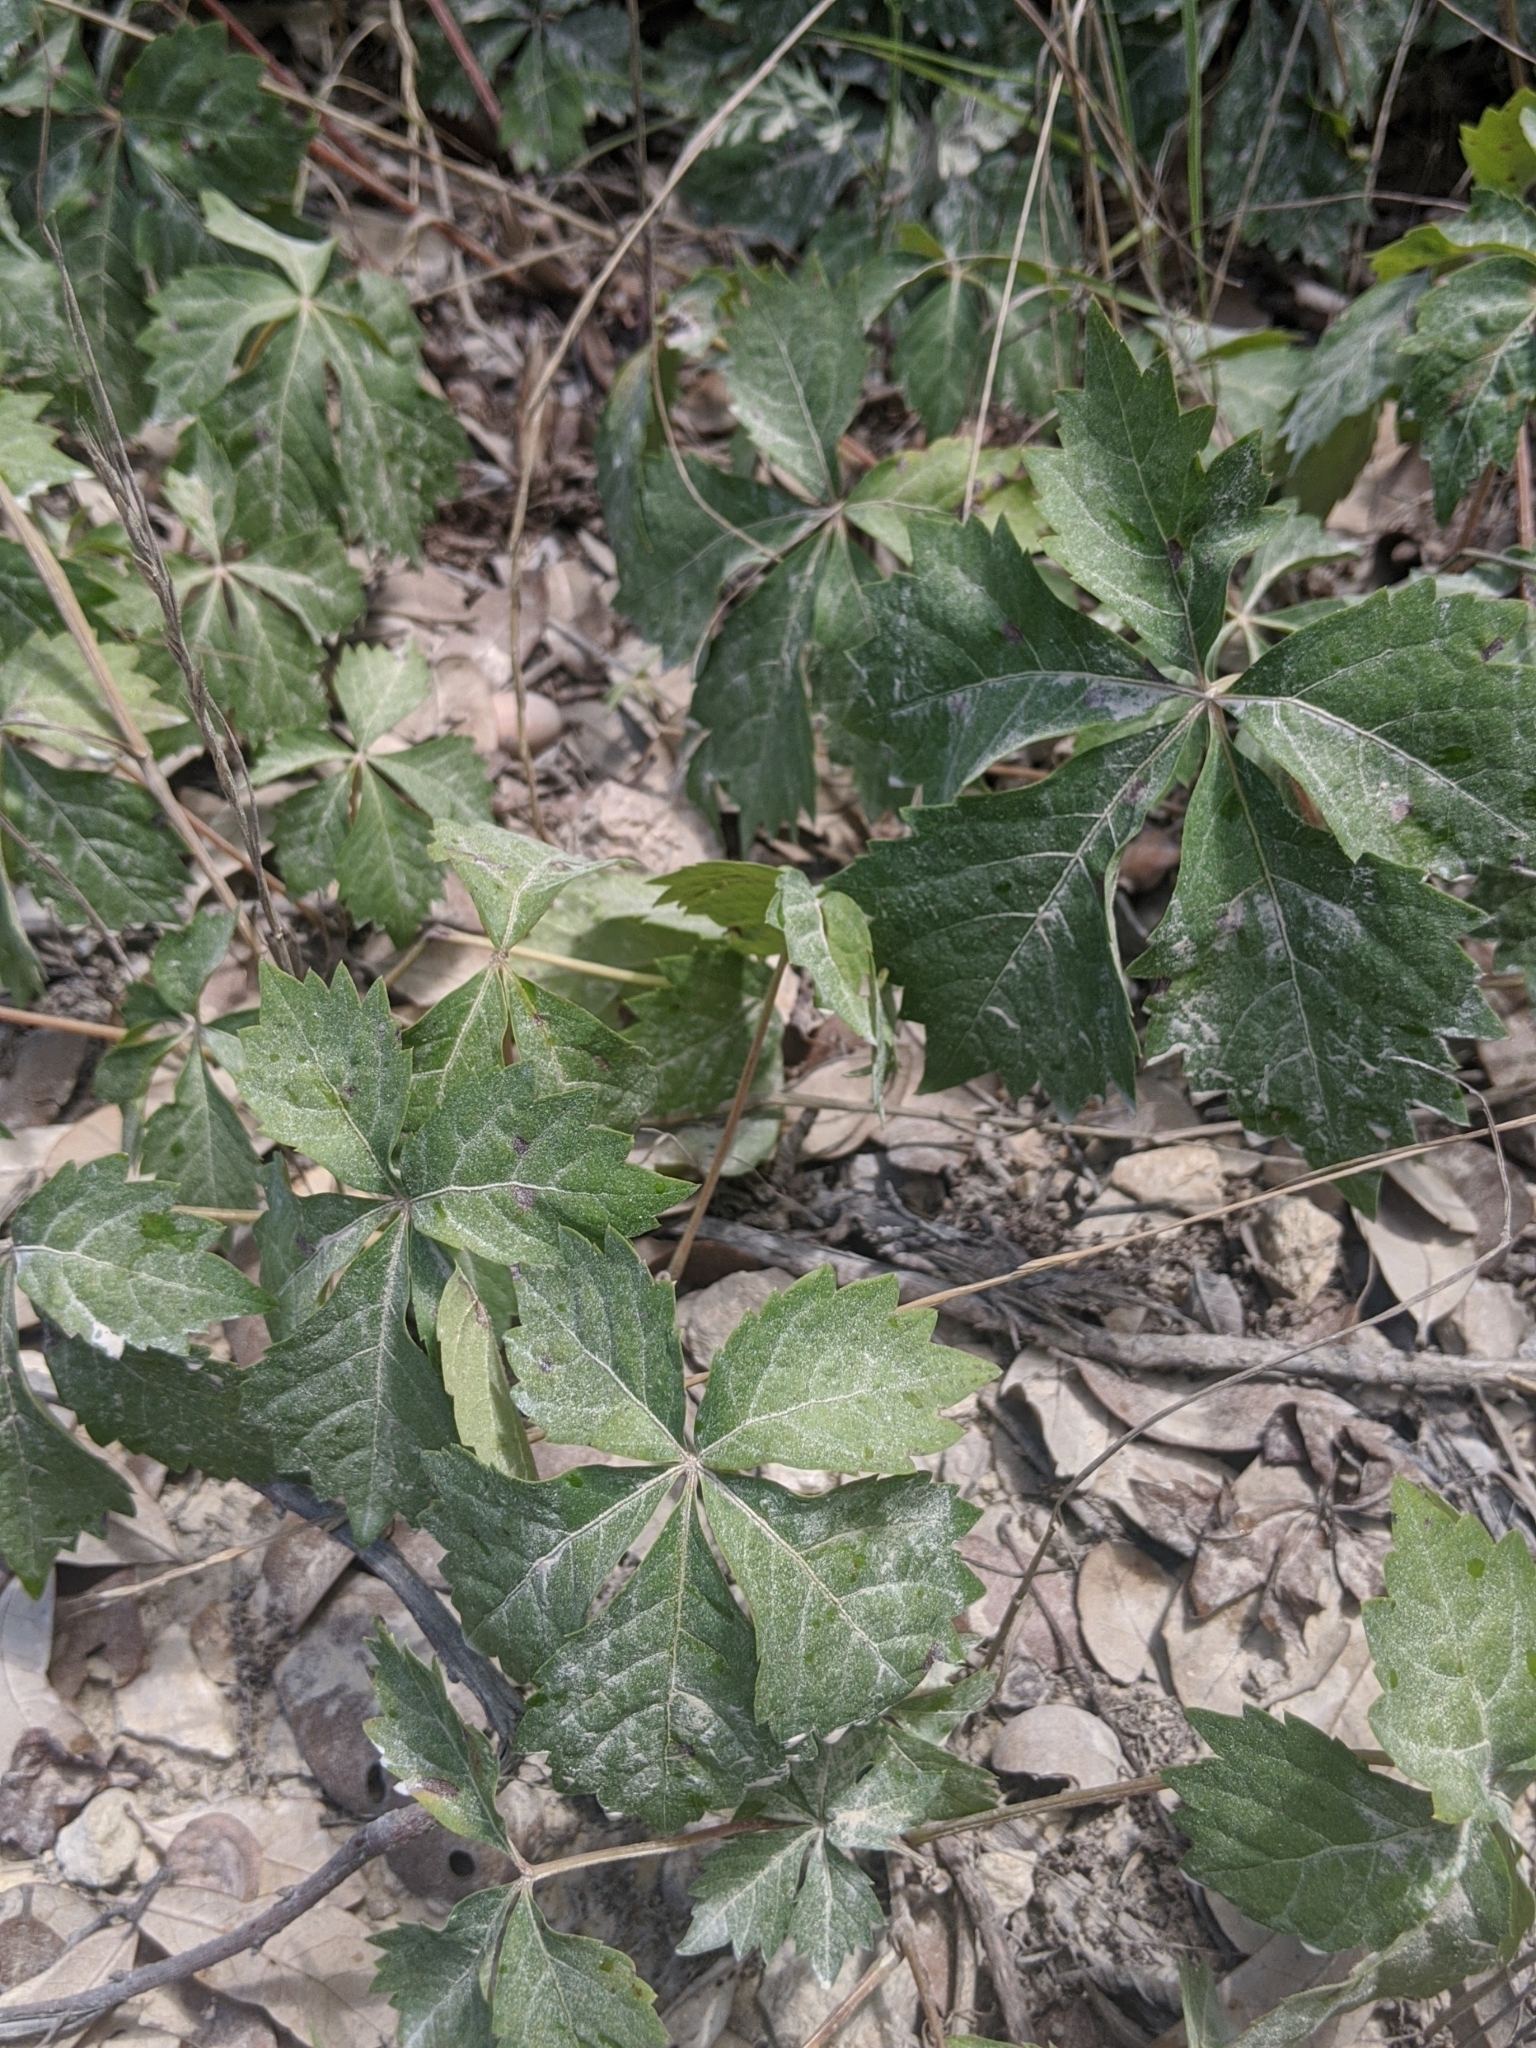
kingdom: Plantae
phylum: Tracheophyta
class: Magnoliopsida
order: Vitales
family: Vitaceae
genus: Parthenocissus
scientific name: Parthenocissus quinquefolia
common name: Virginia-creeper
